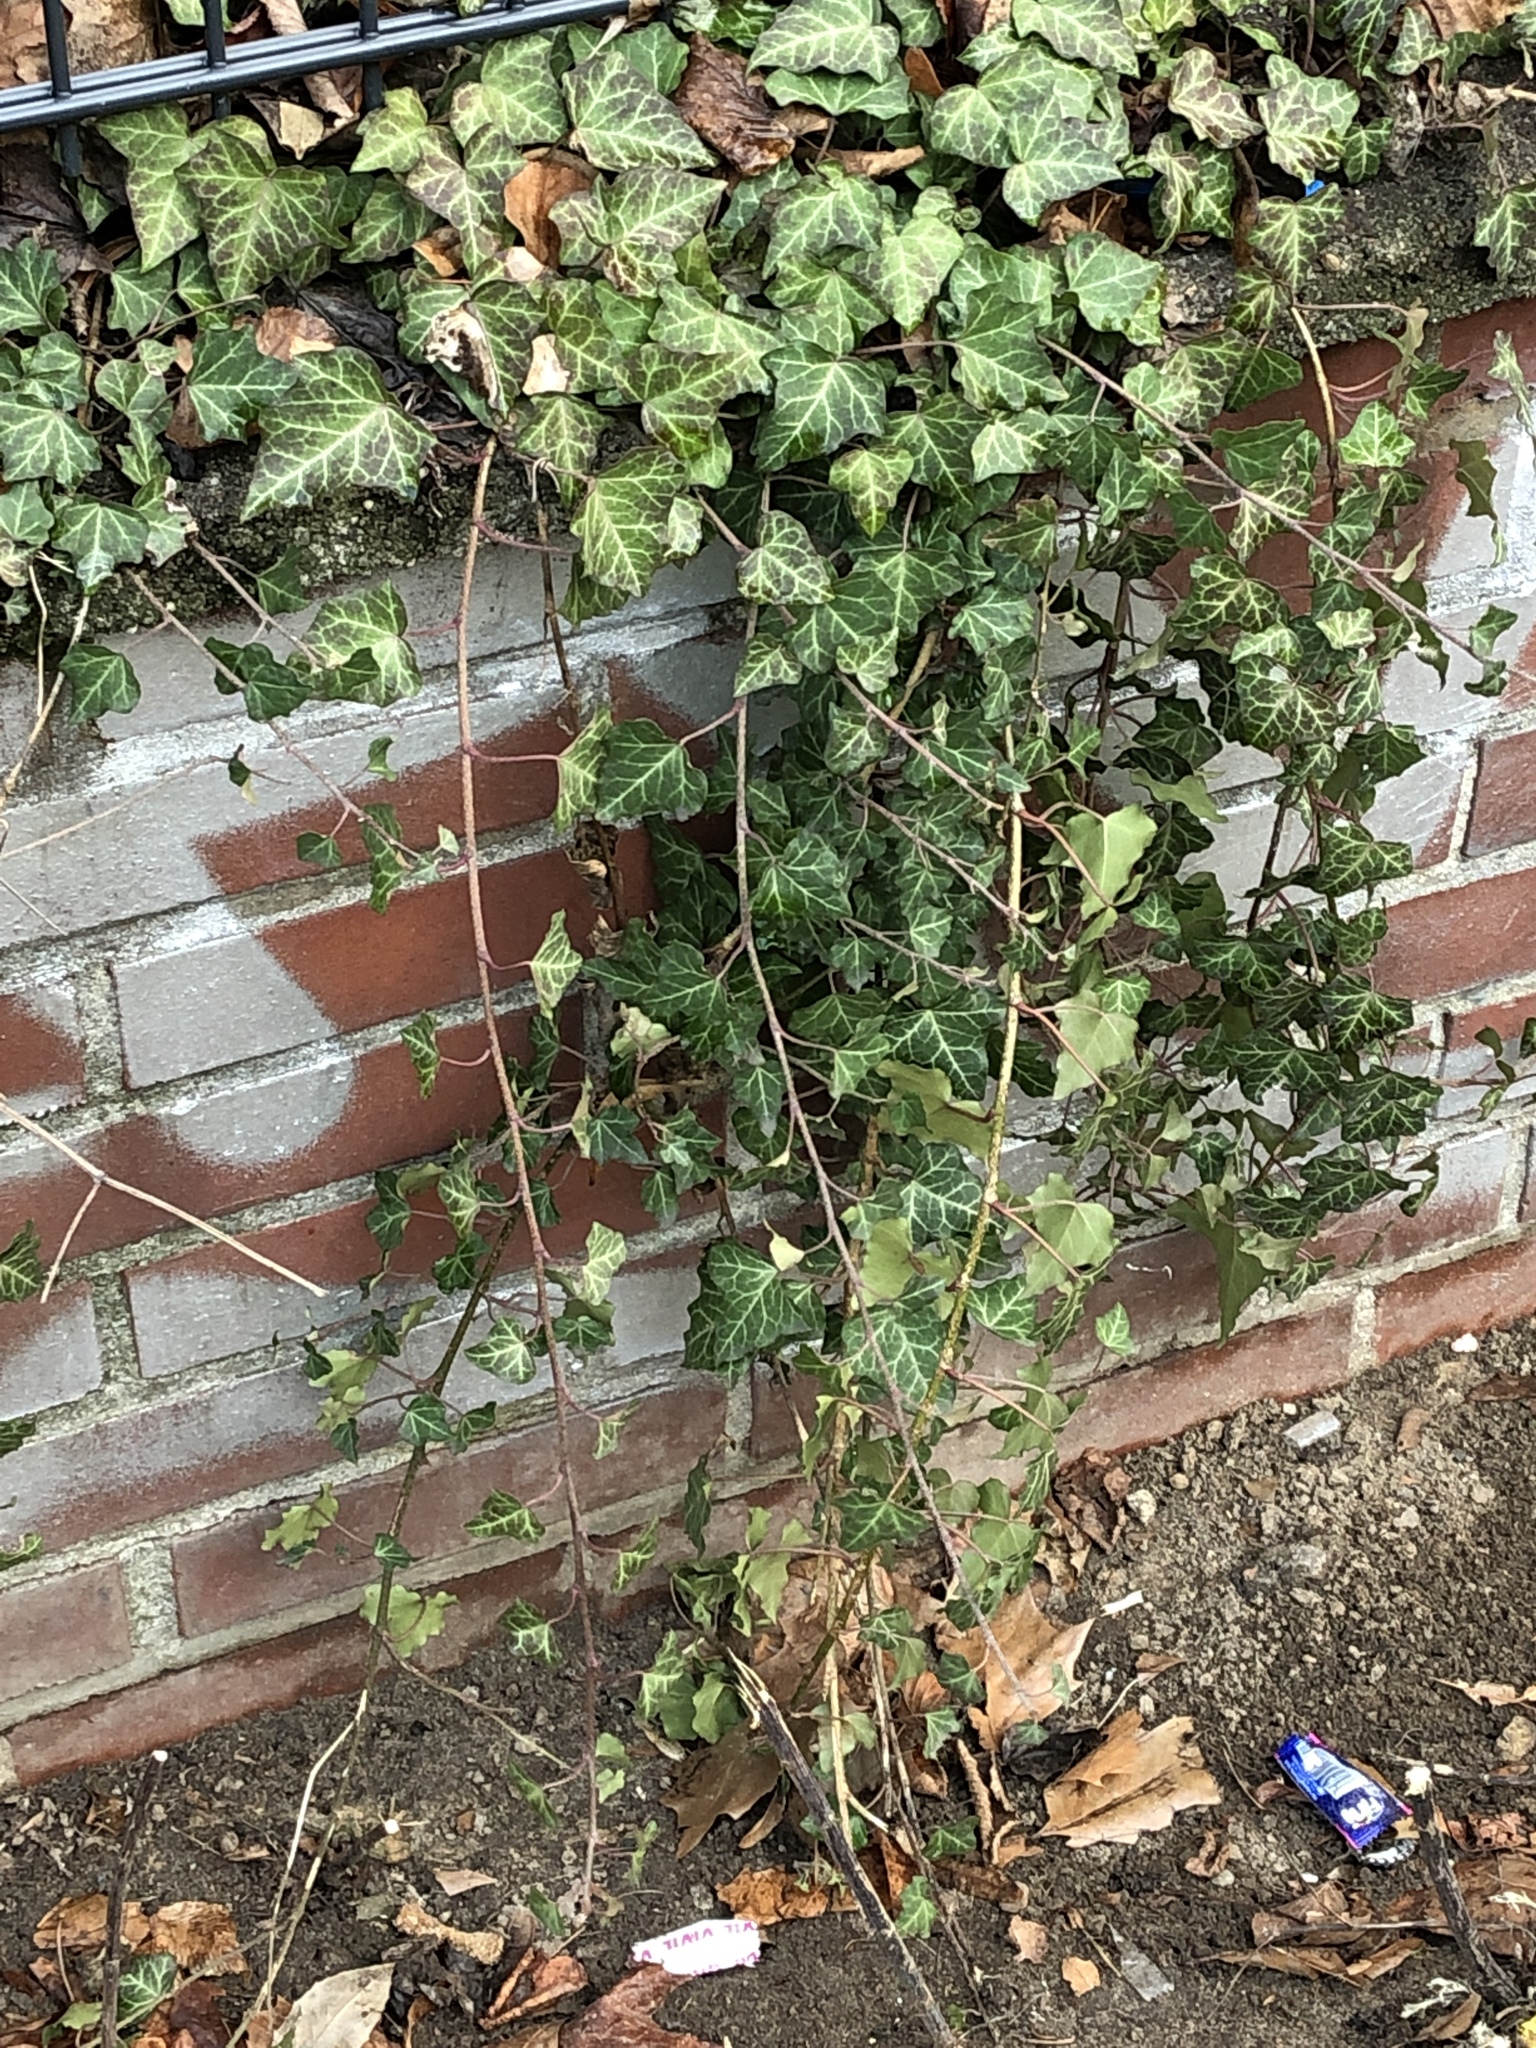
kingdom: Plantae
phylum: Tracheophyta
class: Magnoliopsida
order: Apiales
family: Araliaceae
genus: Hedera
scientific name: Hedera helix
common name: Ivy
